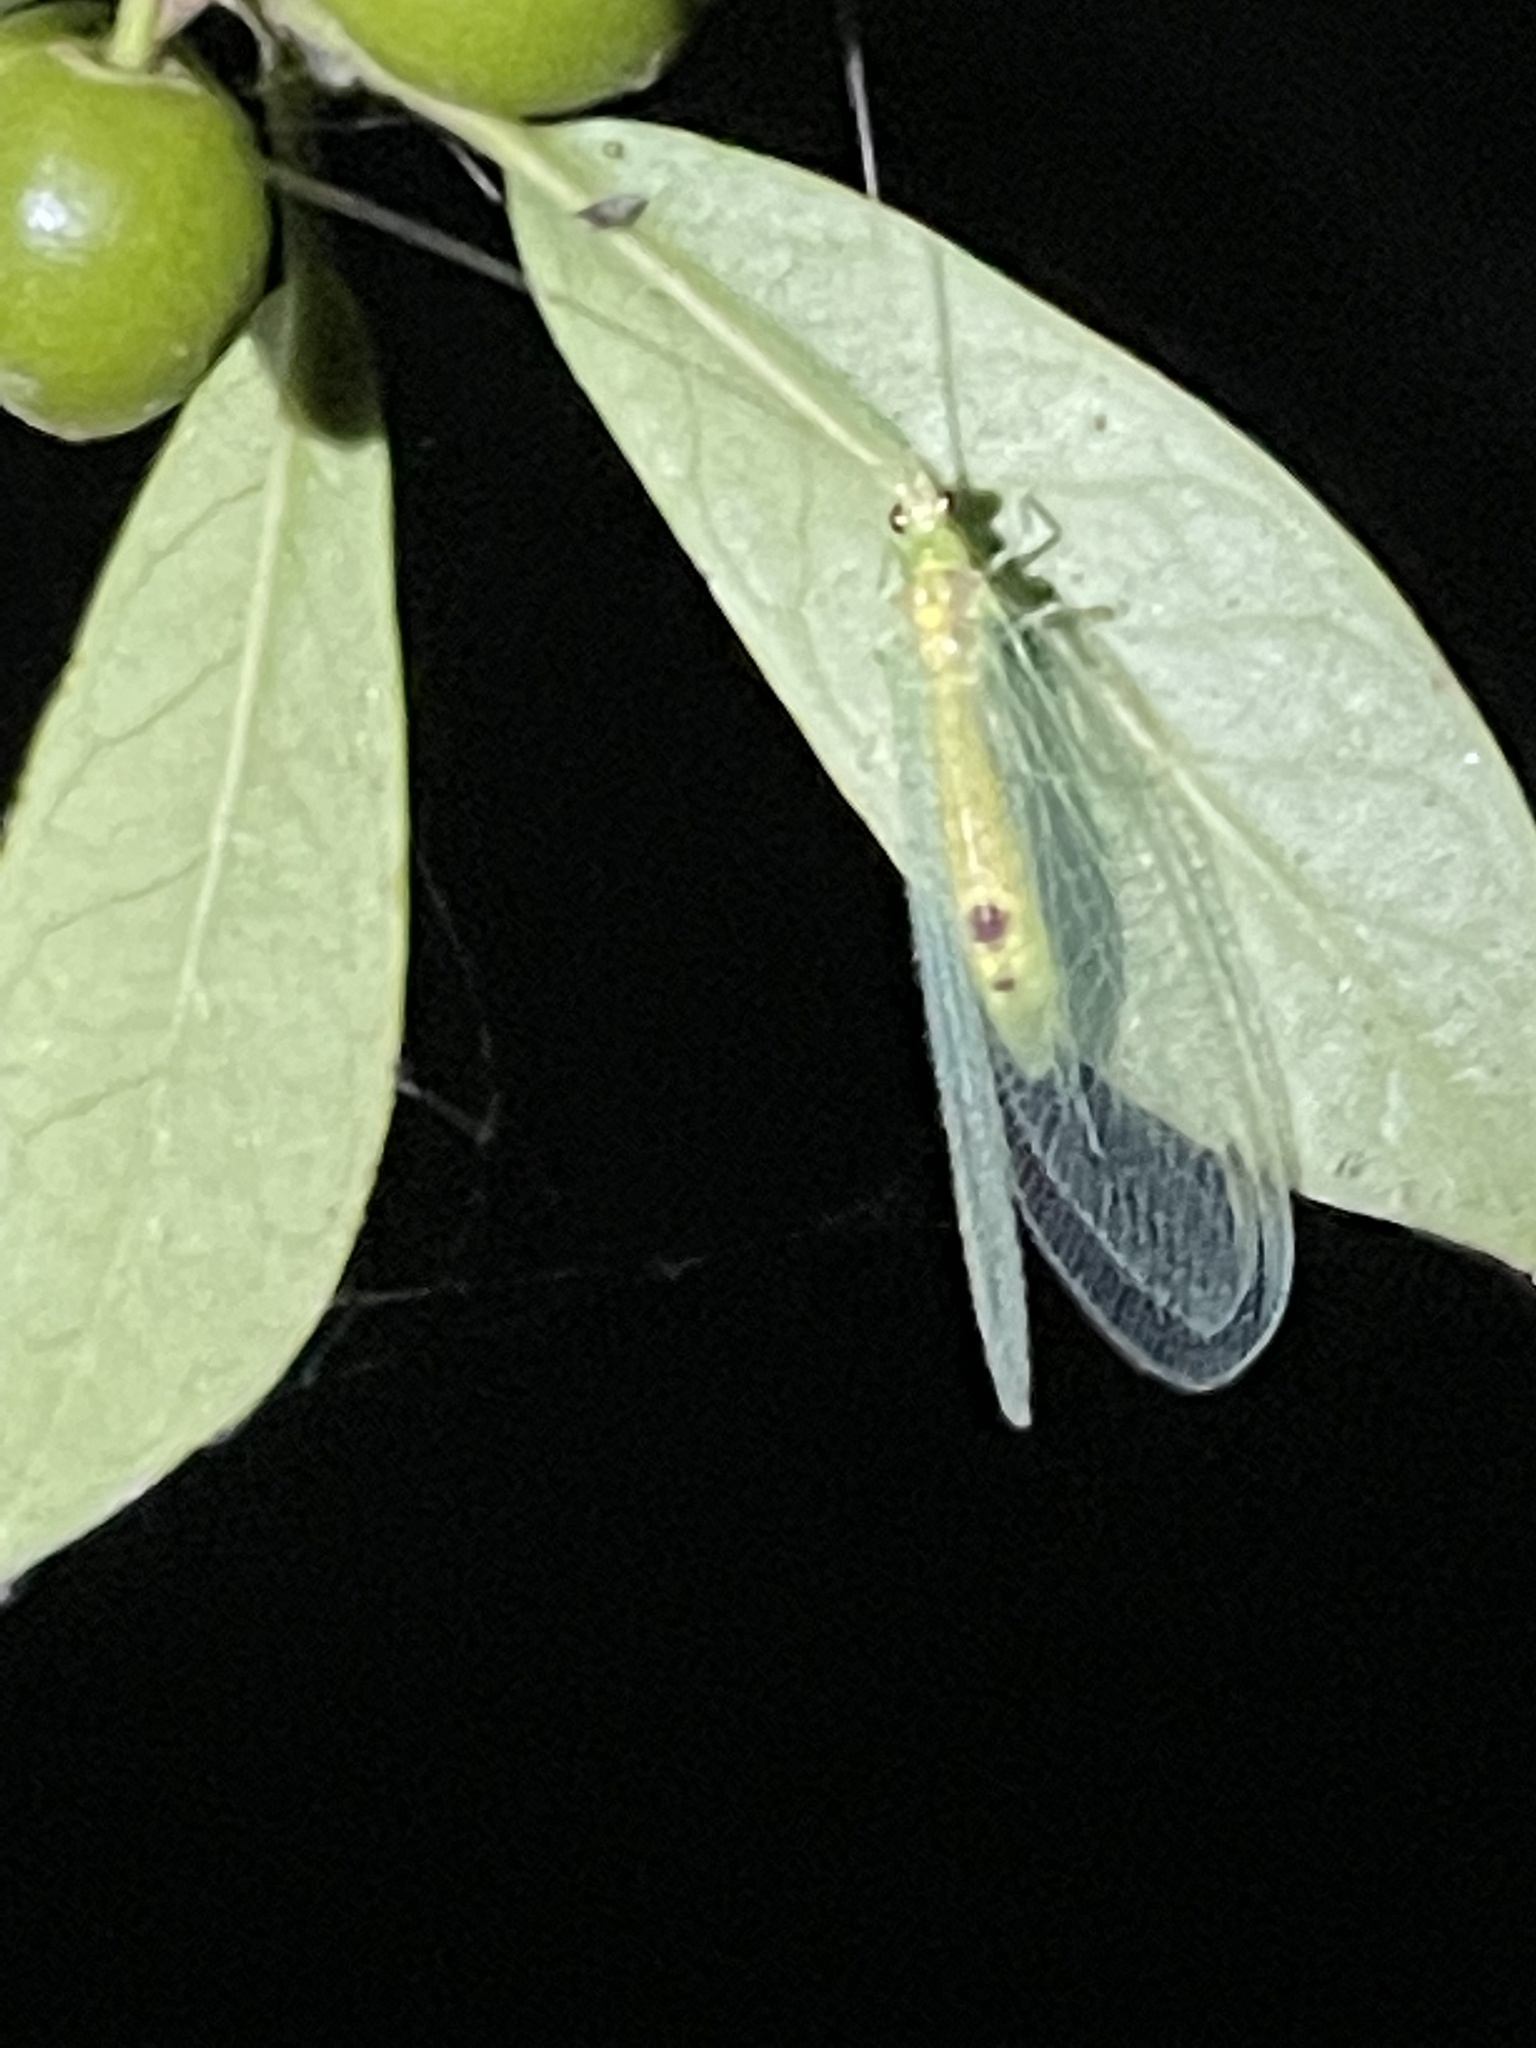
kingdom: Animalia
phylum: Arthropoda
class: Insecta
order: Neuroptera
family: Chrysopidae
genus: Leucochrysa
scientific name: Leucochrysa insularis
